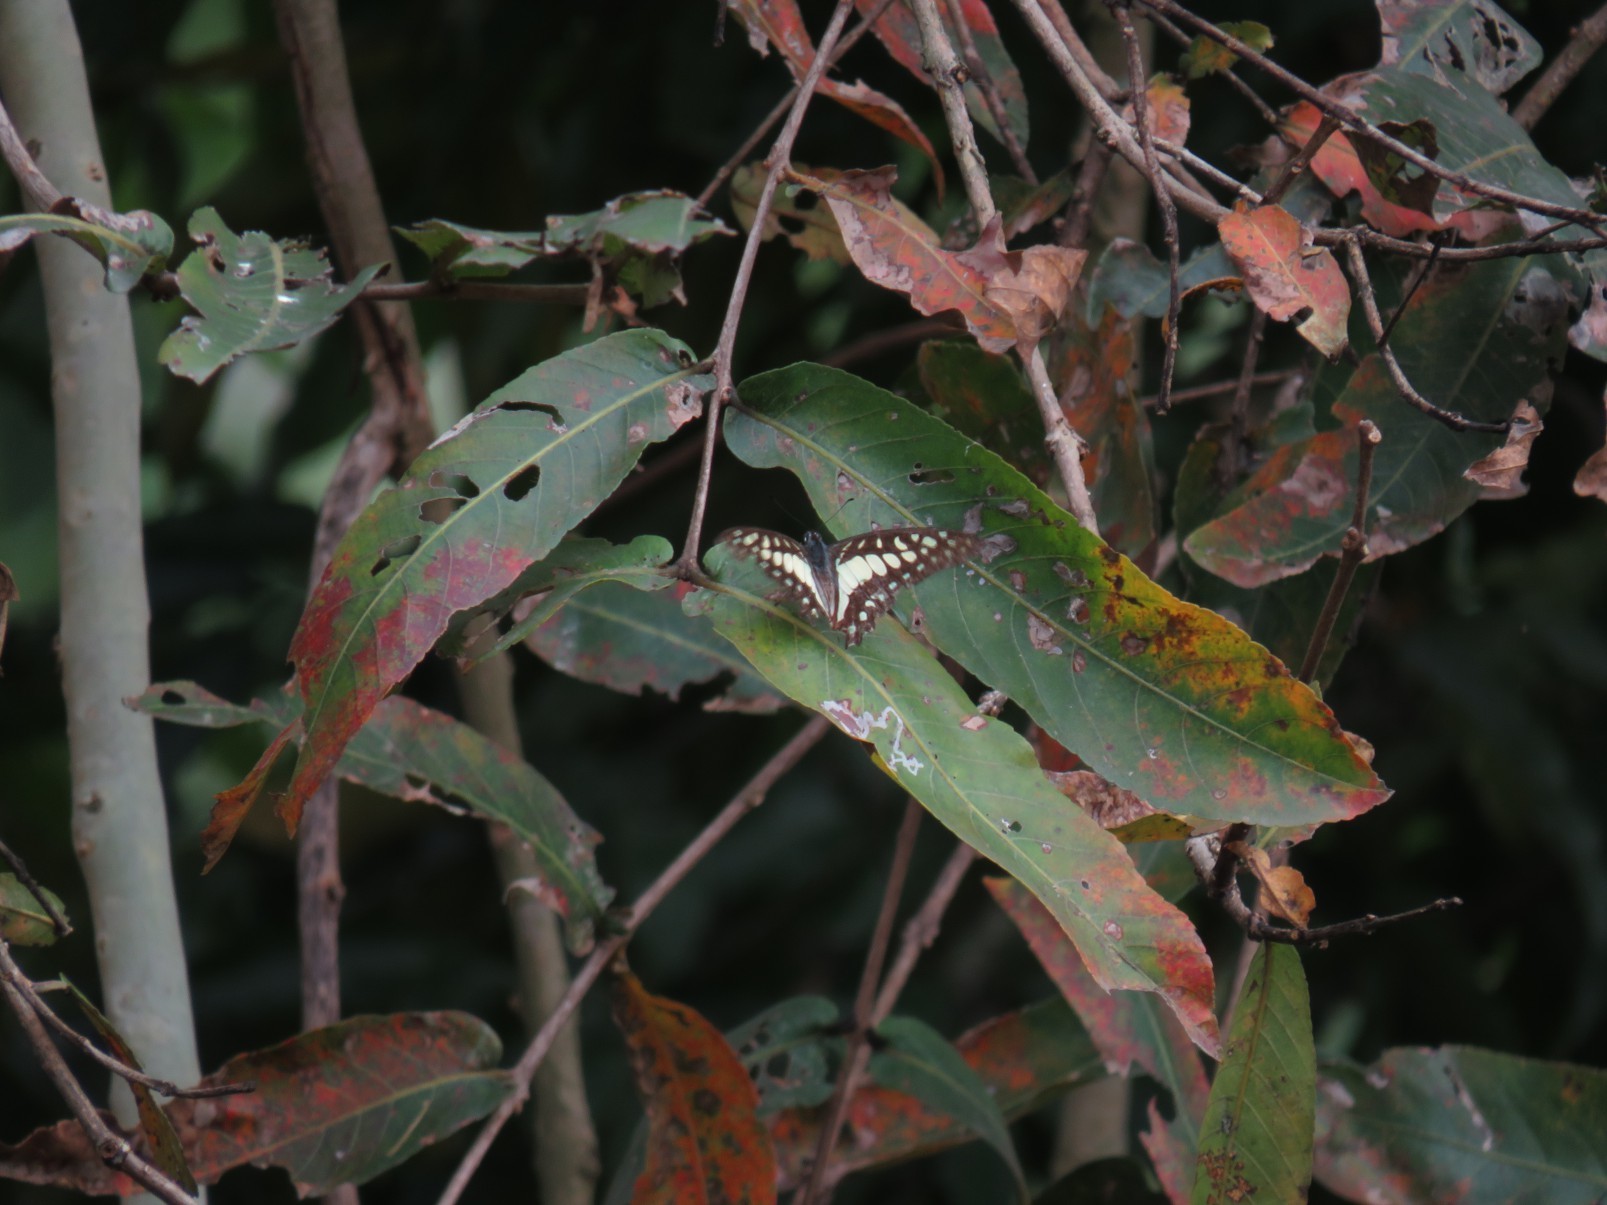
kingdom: Fungi
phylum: Ascomycota
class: Sordariomycetes
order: Microascales
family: Microascaceae
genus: Graphium
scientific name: Graphium sarpedon
